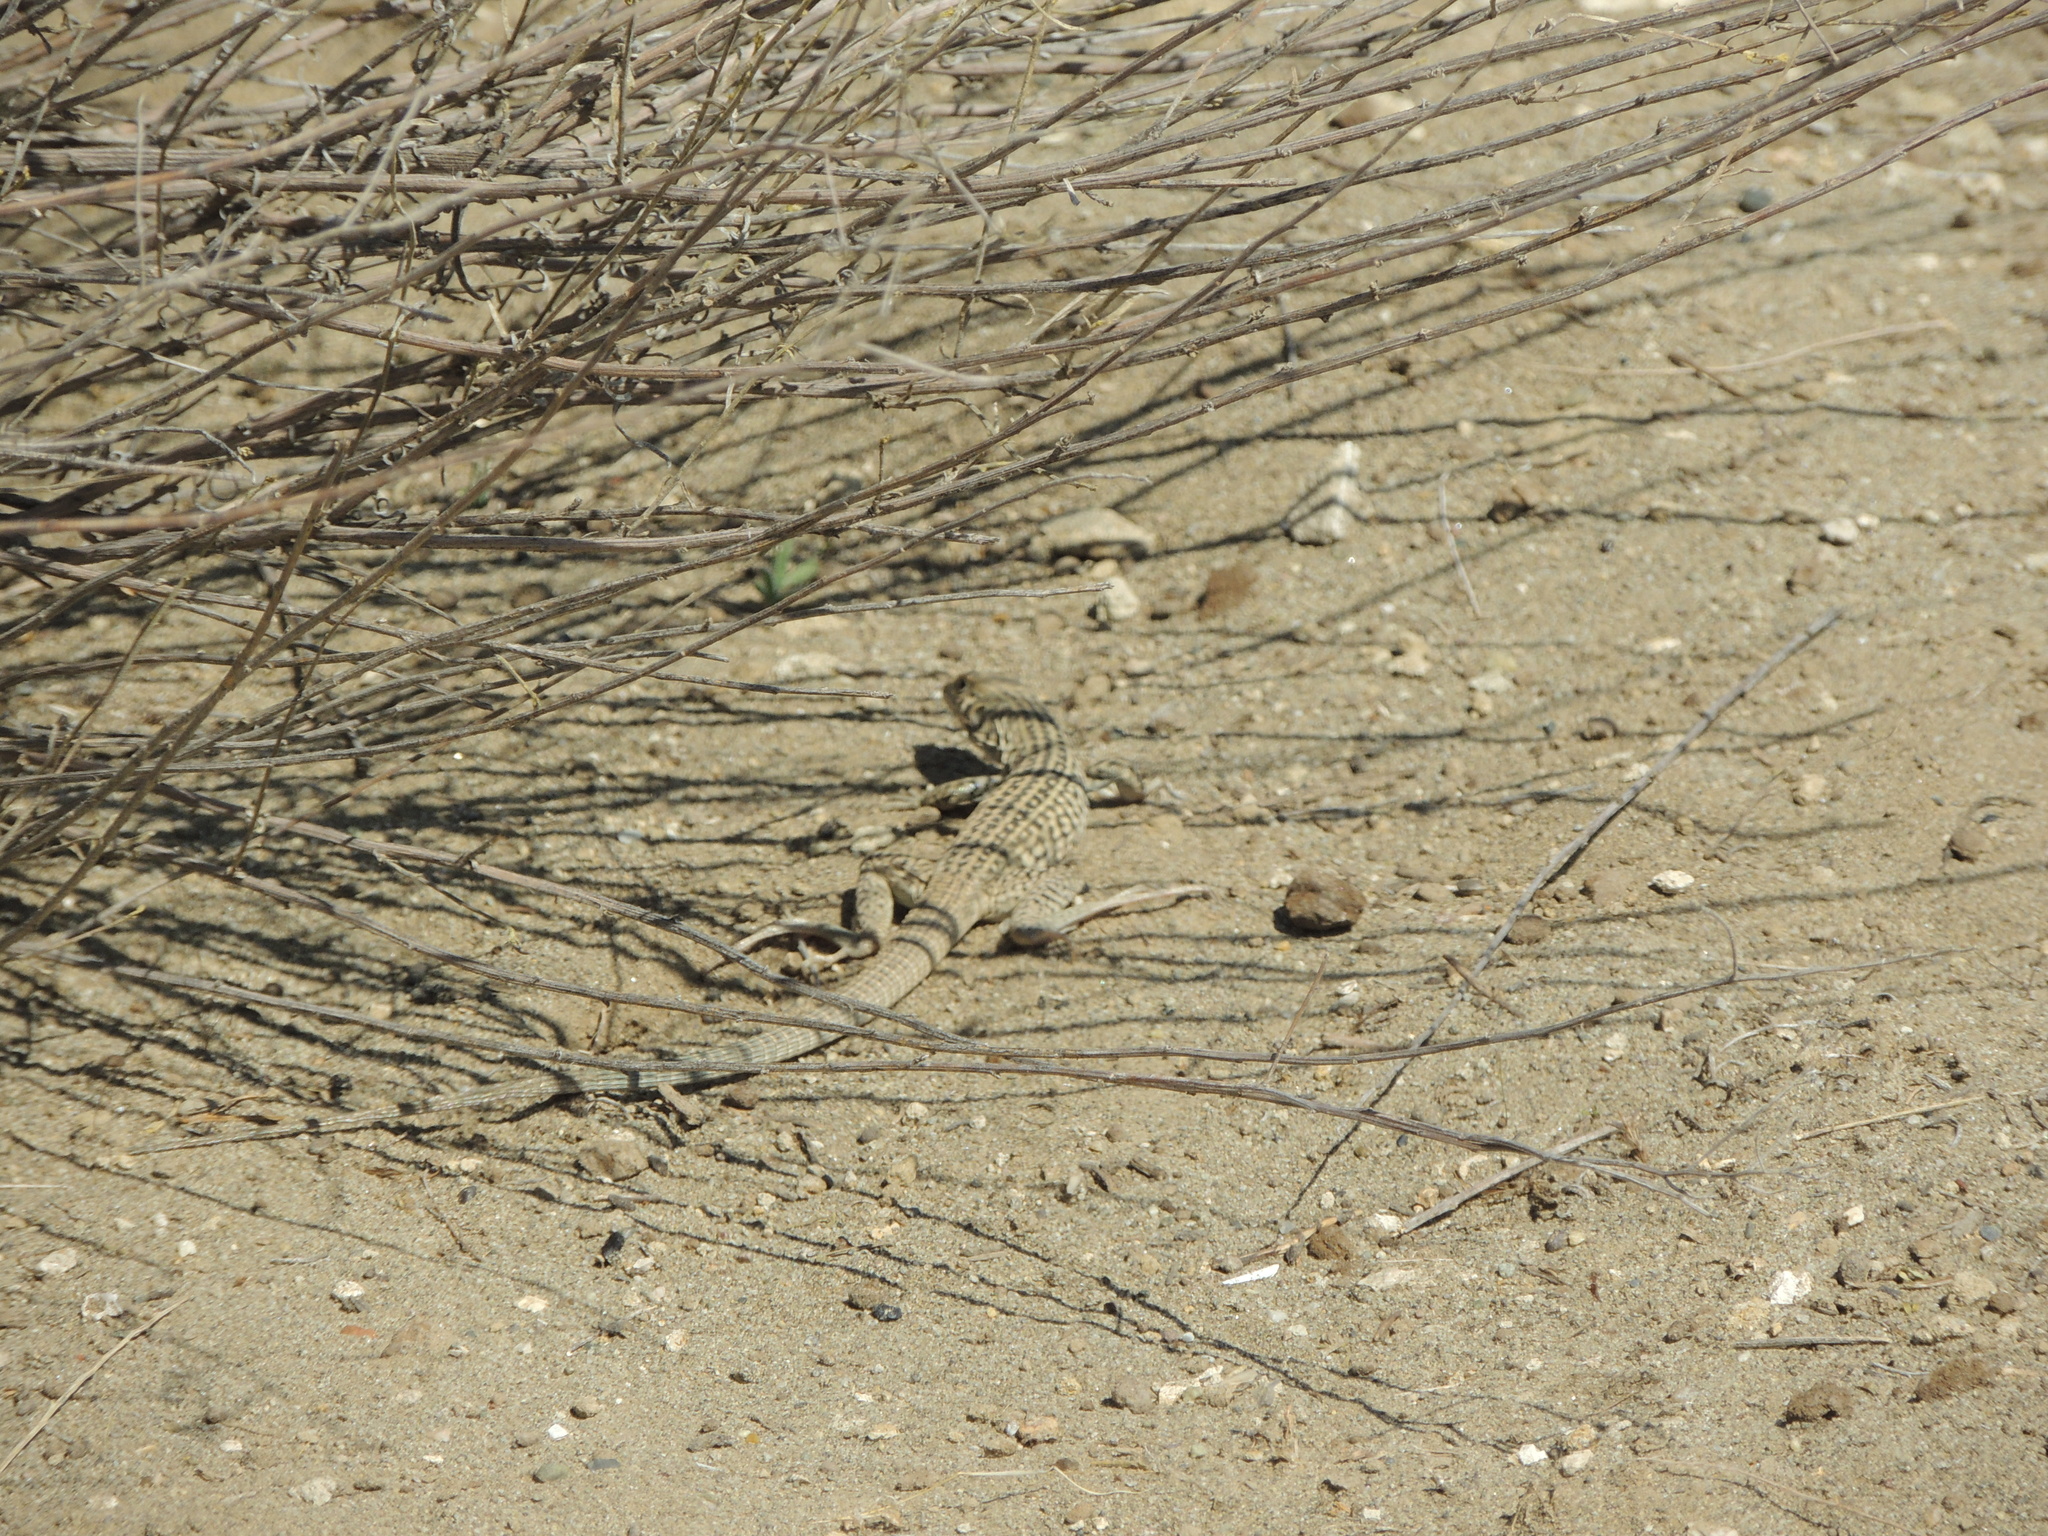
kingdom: Animalia
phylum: Chordata
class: Squamata
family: Teiidae
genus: Aspidoscelis
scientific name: Aspidoscelis tigris
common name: Tiger whiptail
